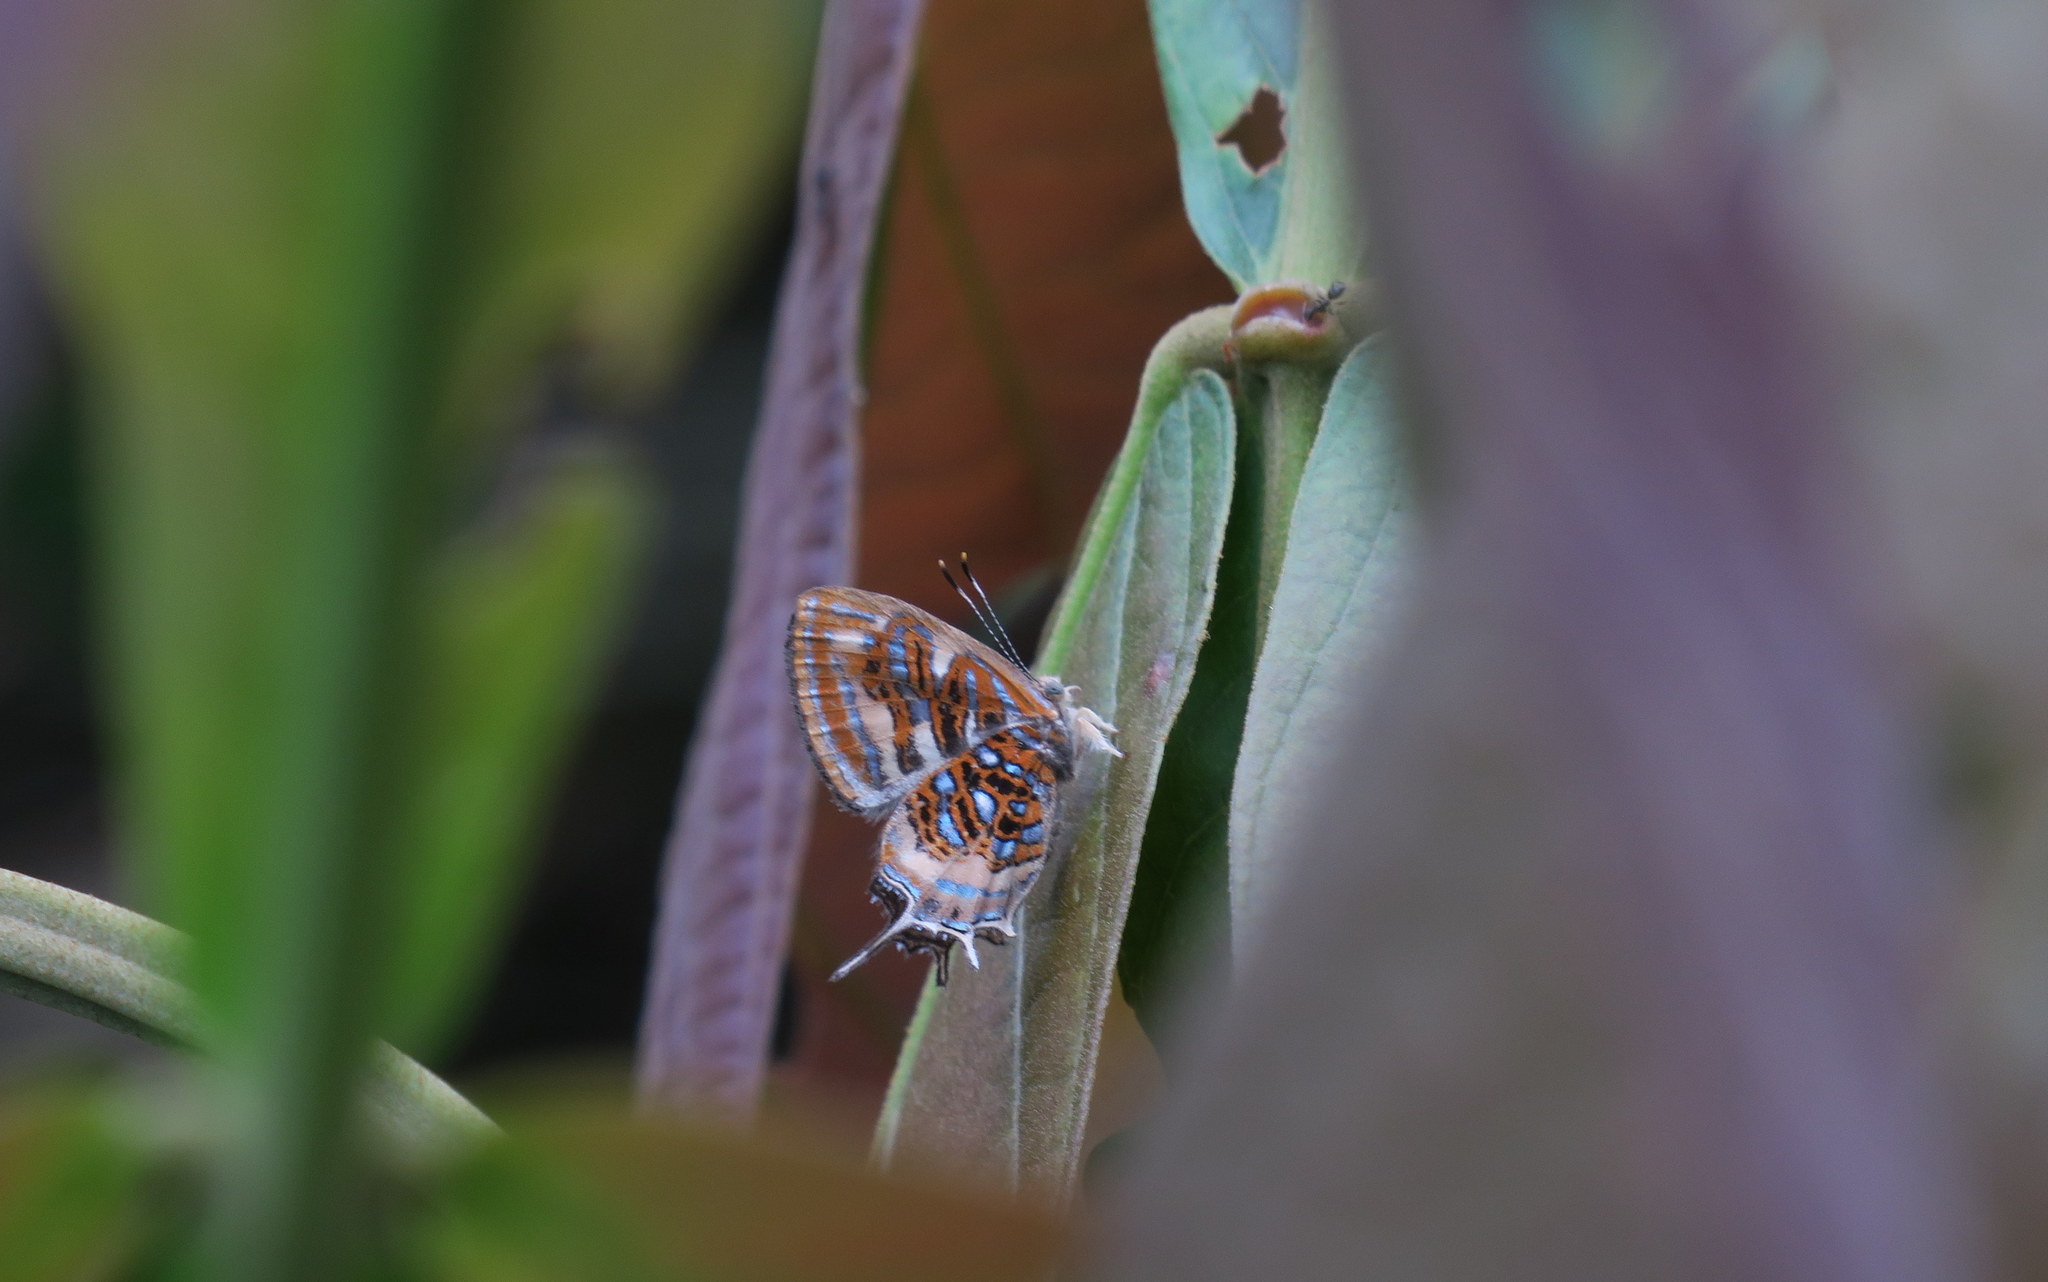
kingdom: Animalia
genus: Charis
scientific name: Charis chrysus
